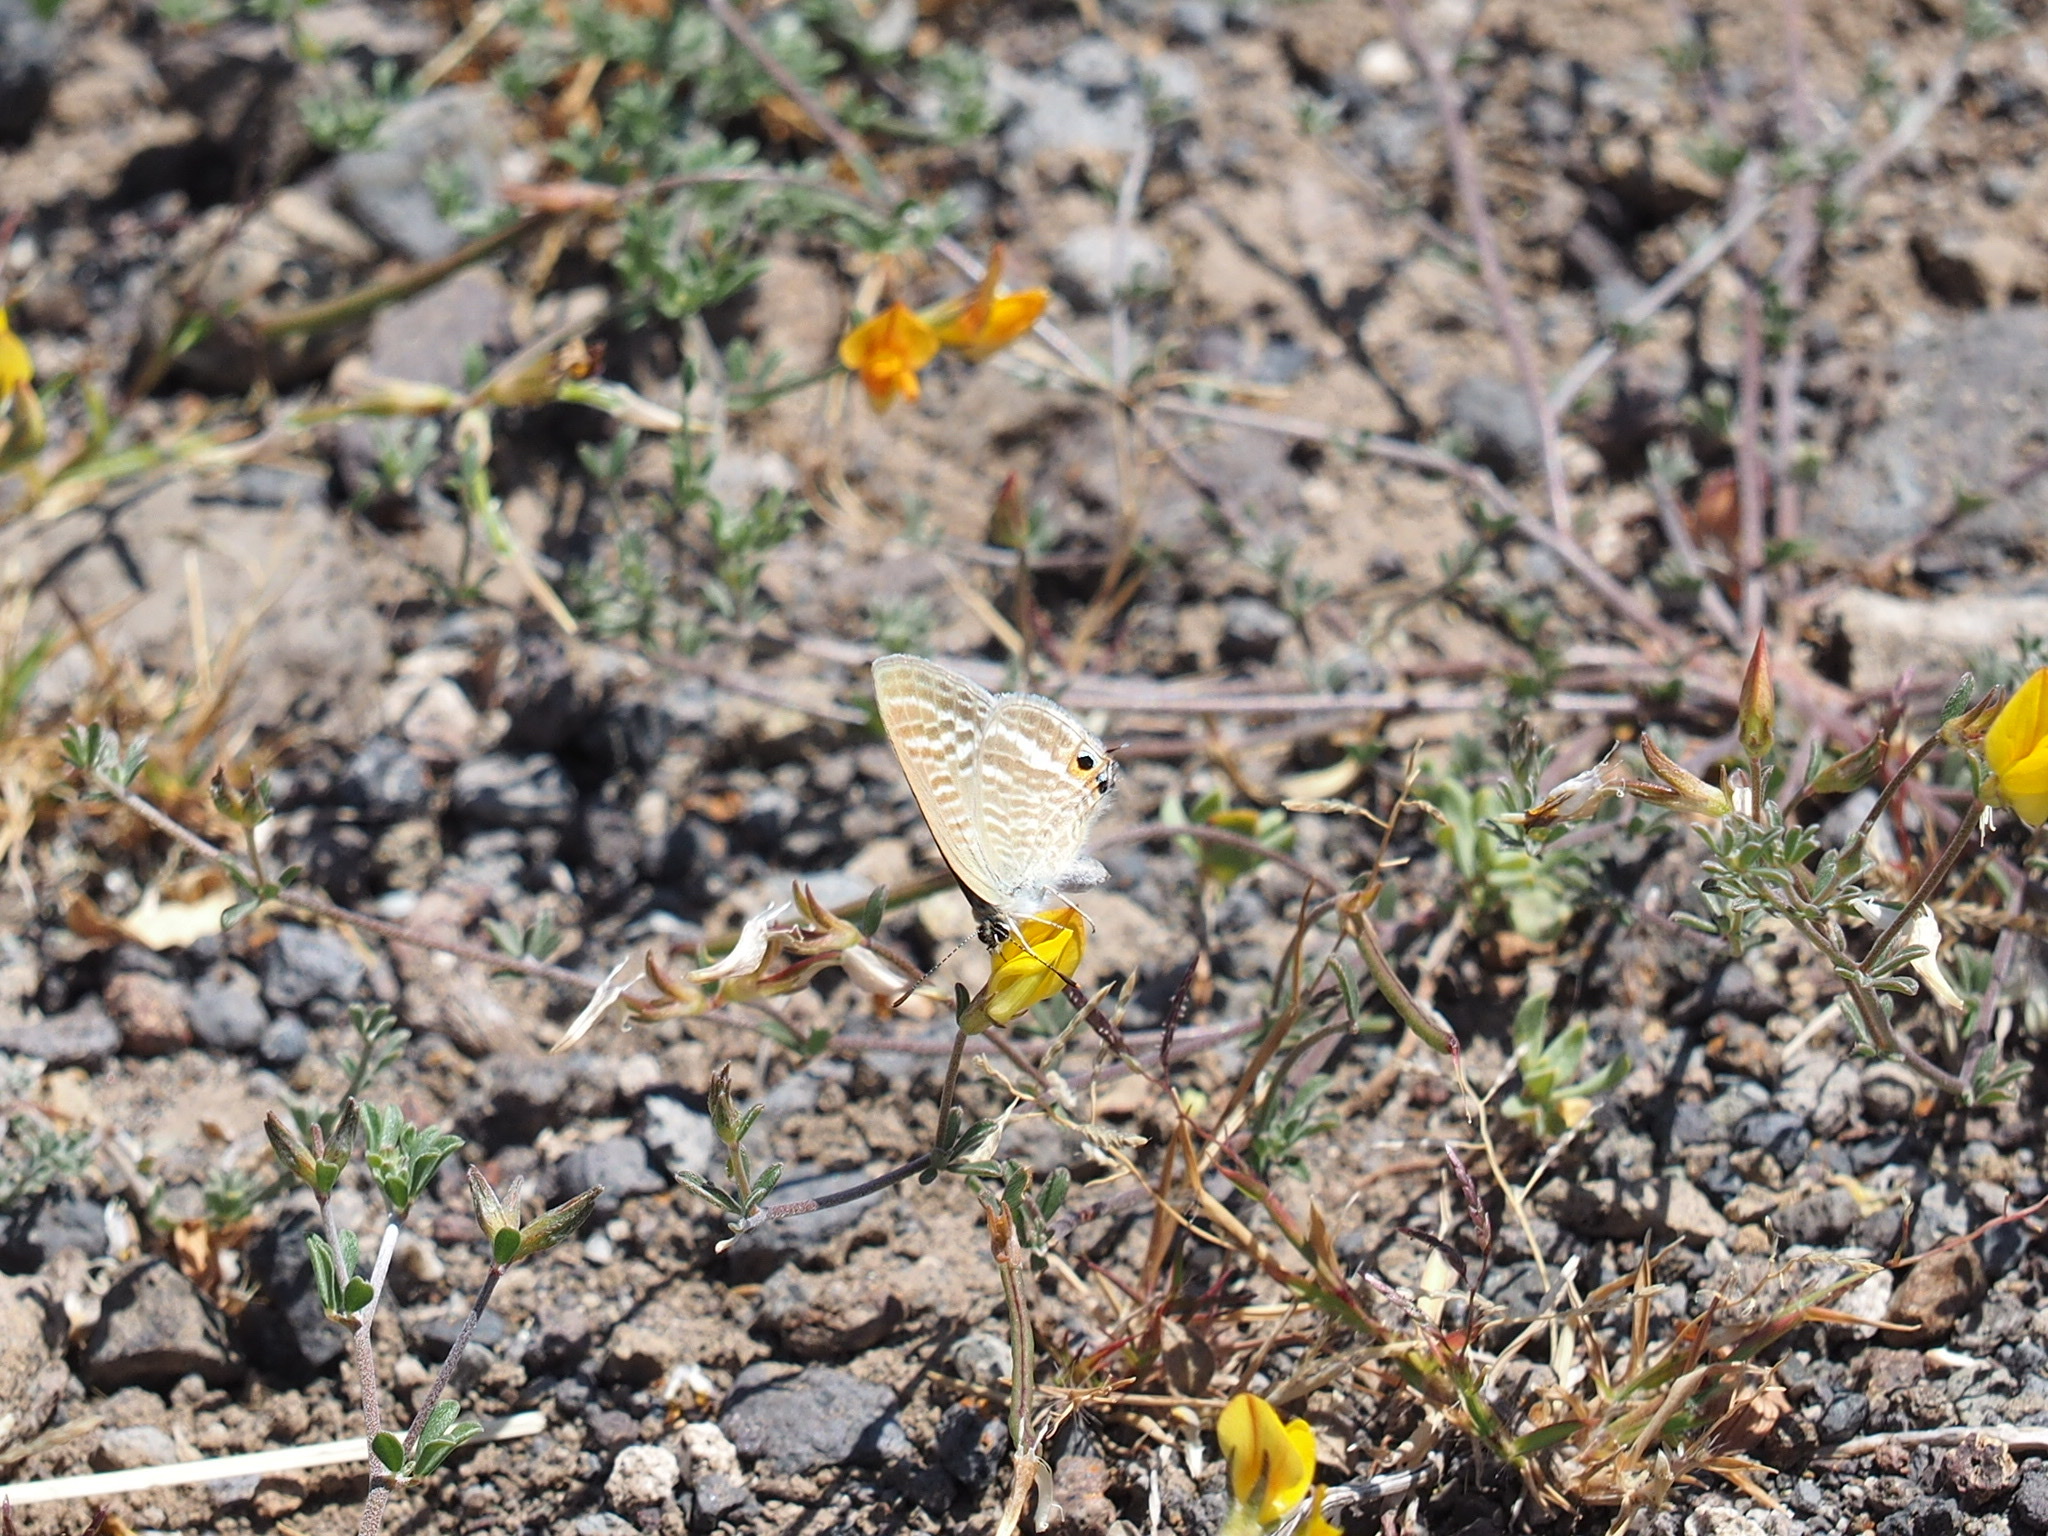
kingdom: Animalia
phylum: Arthropoda
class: Insecta
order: Lepidoptera
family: Lycaenidae
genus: Lampides
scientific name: Lampides boeticus
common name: Long-tailed blue
